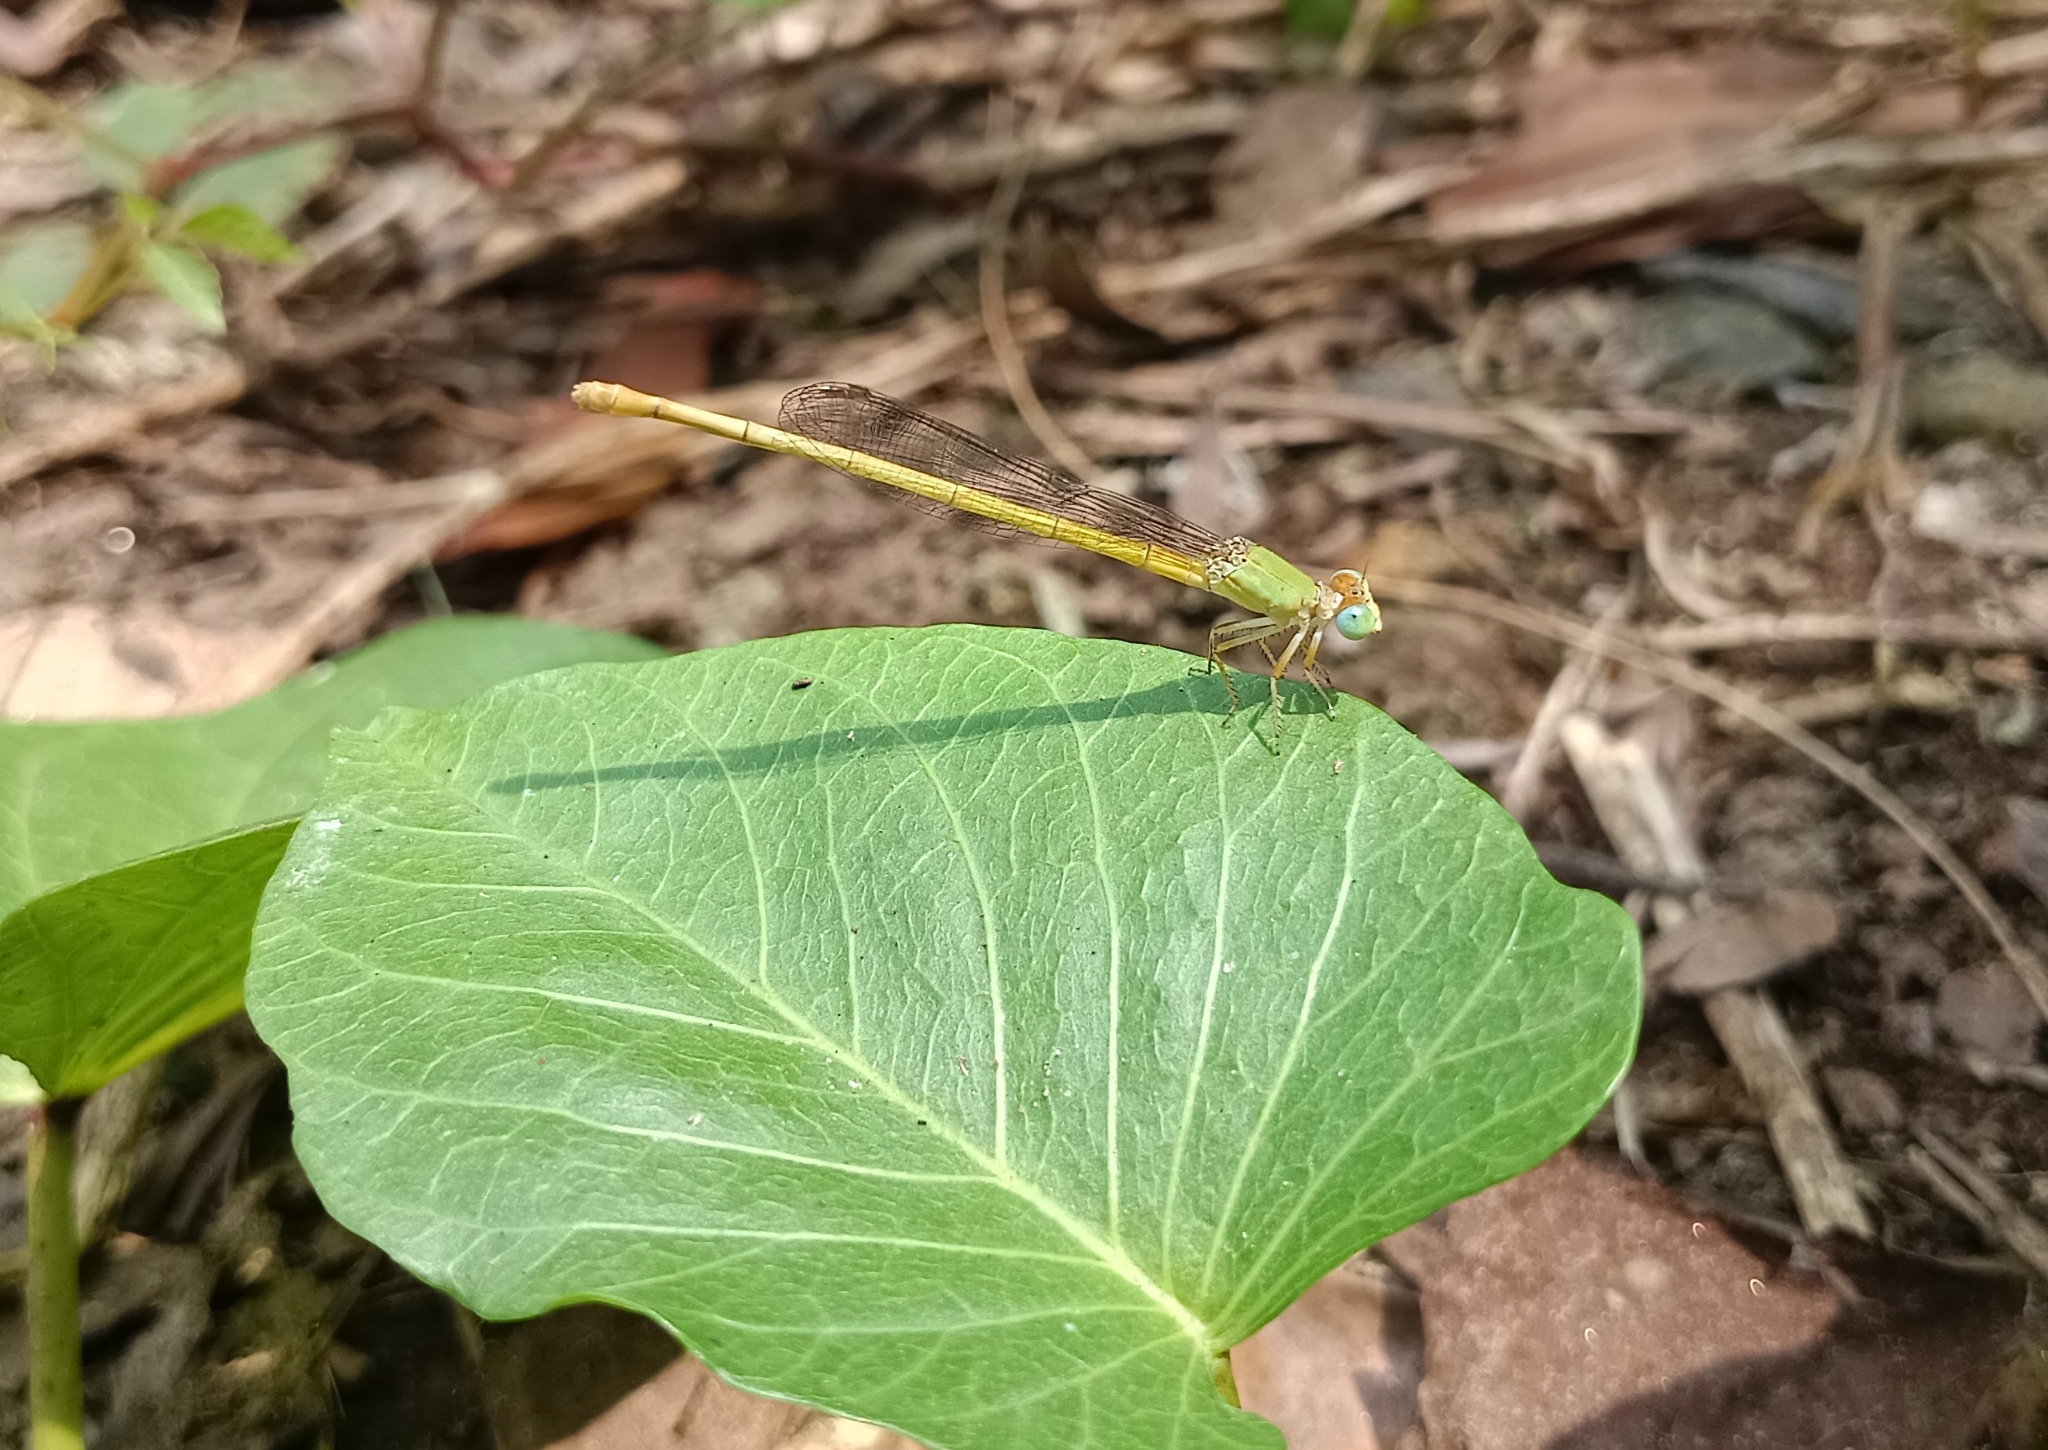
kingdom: Animalia
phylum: Arthropoda
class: Insecta
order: Odonata
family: Coenagrionidae
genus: Ceriagrion
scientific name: Ceriagrion coromandelianum
